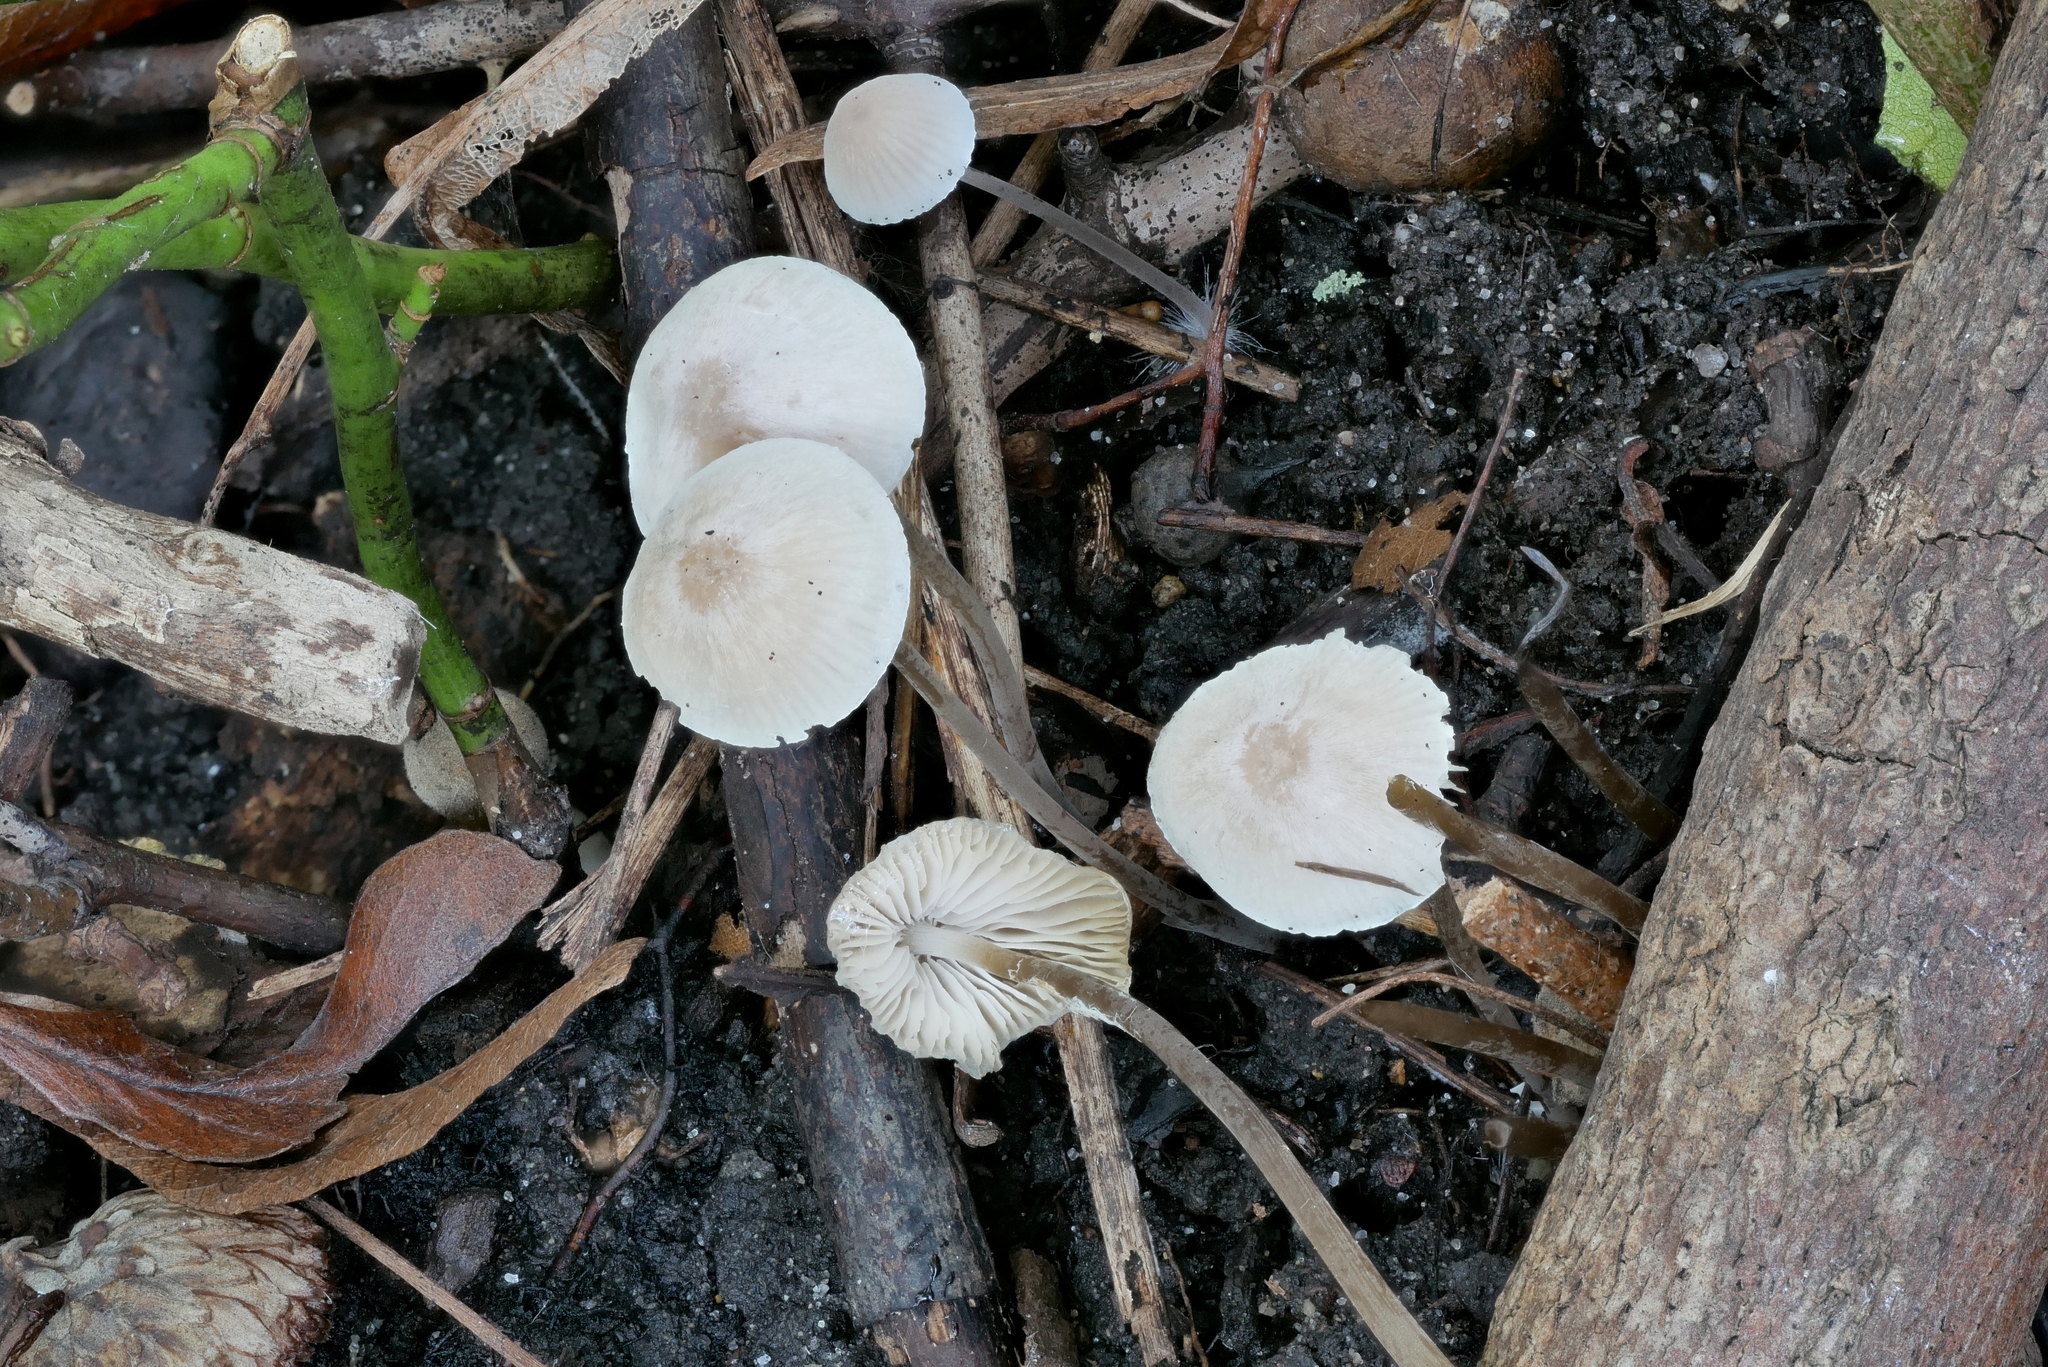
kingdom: Fungi
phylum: Basidiomycota
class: Agaricomycetes
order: Agaricales
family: Mycenaceae
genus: Mycena
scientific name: Mycena filopes
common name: Iodine bonnet
